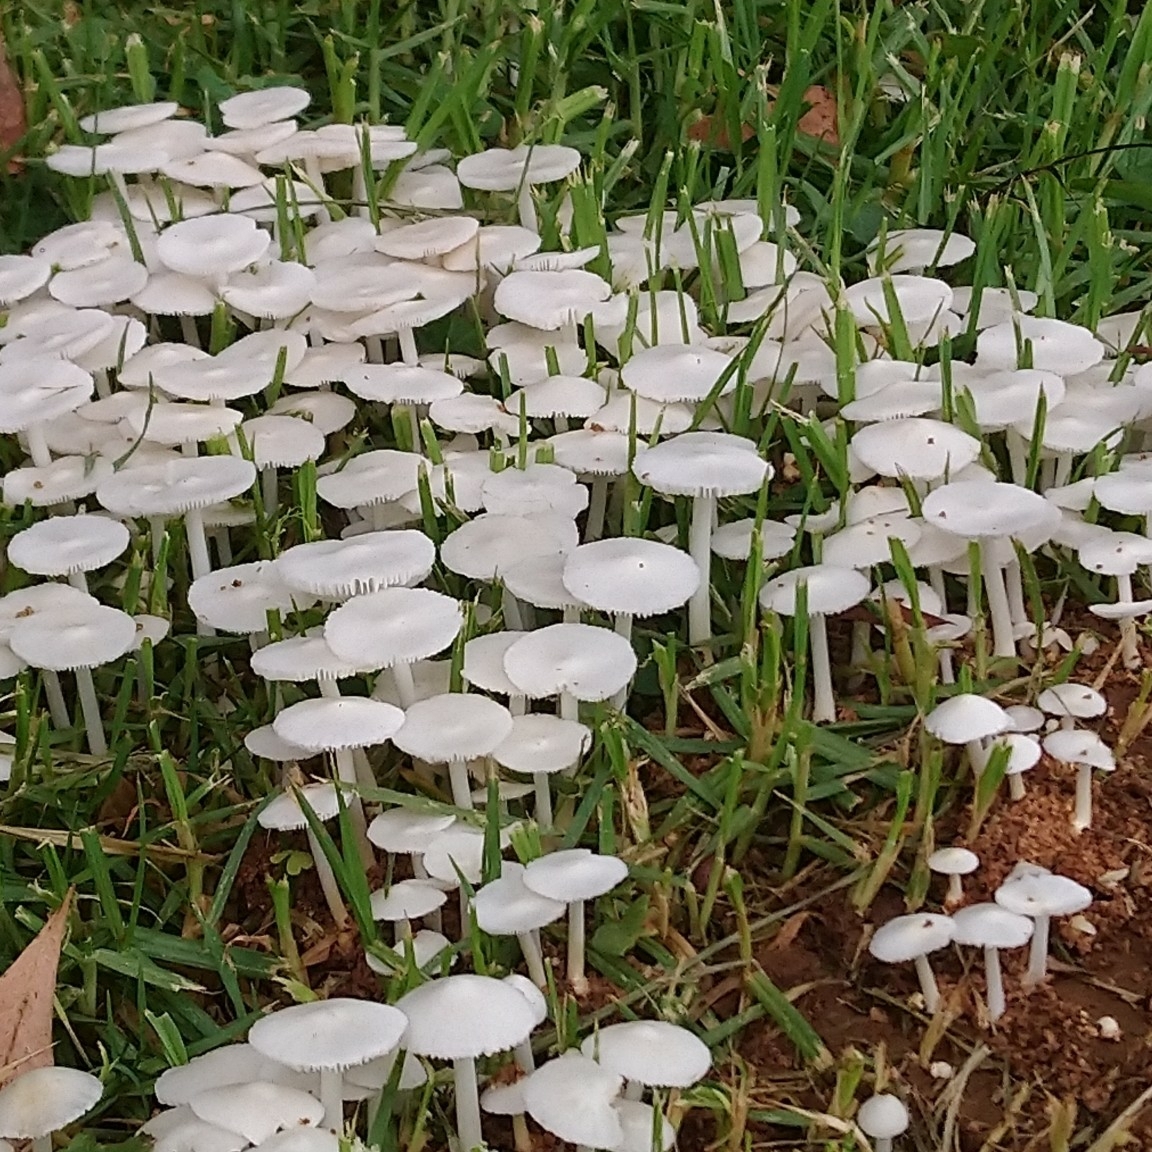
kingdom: Fungi
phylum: Basidiomycota
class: Agaricomycetes
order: Agaricales
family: Lyophyllaceae
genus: Termitomyces
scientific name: Termitomyces microcarpus
